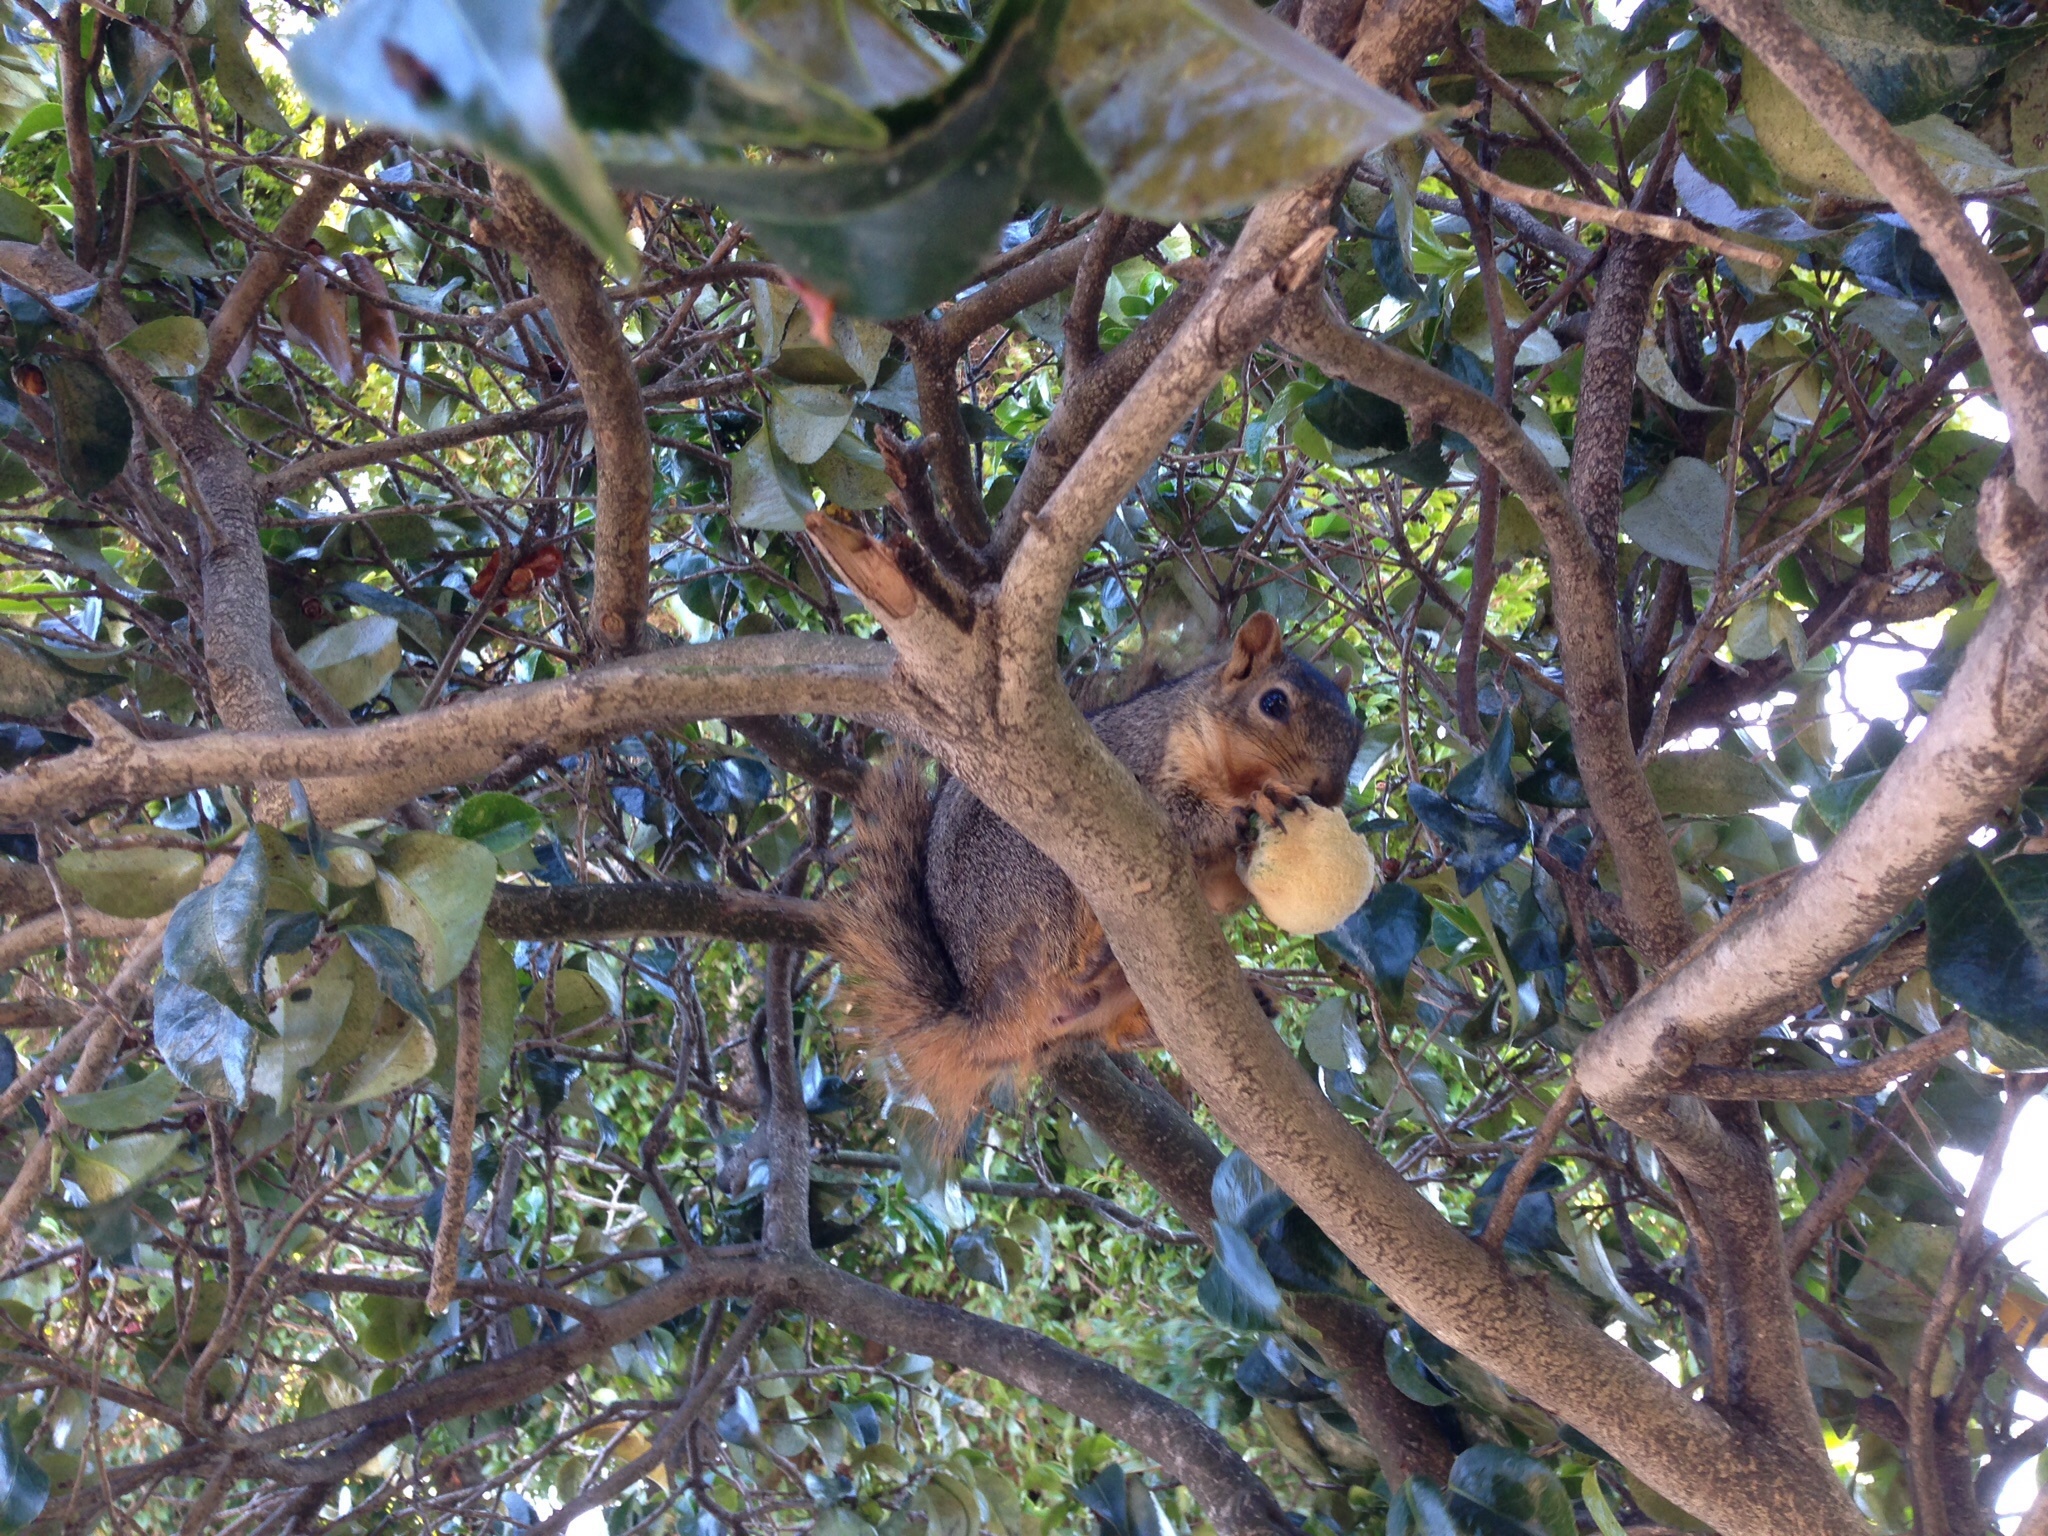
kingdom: Animalia
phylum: Chordata
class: Mammalia
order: Rodentia
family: Sciuridae
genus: Sciurus
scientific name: Sciurus niger
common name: Fox squirrel
